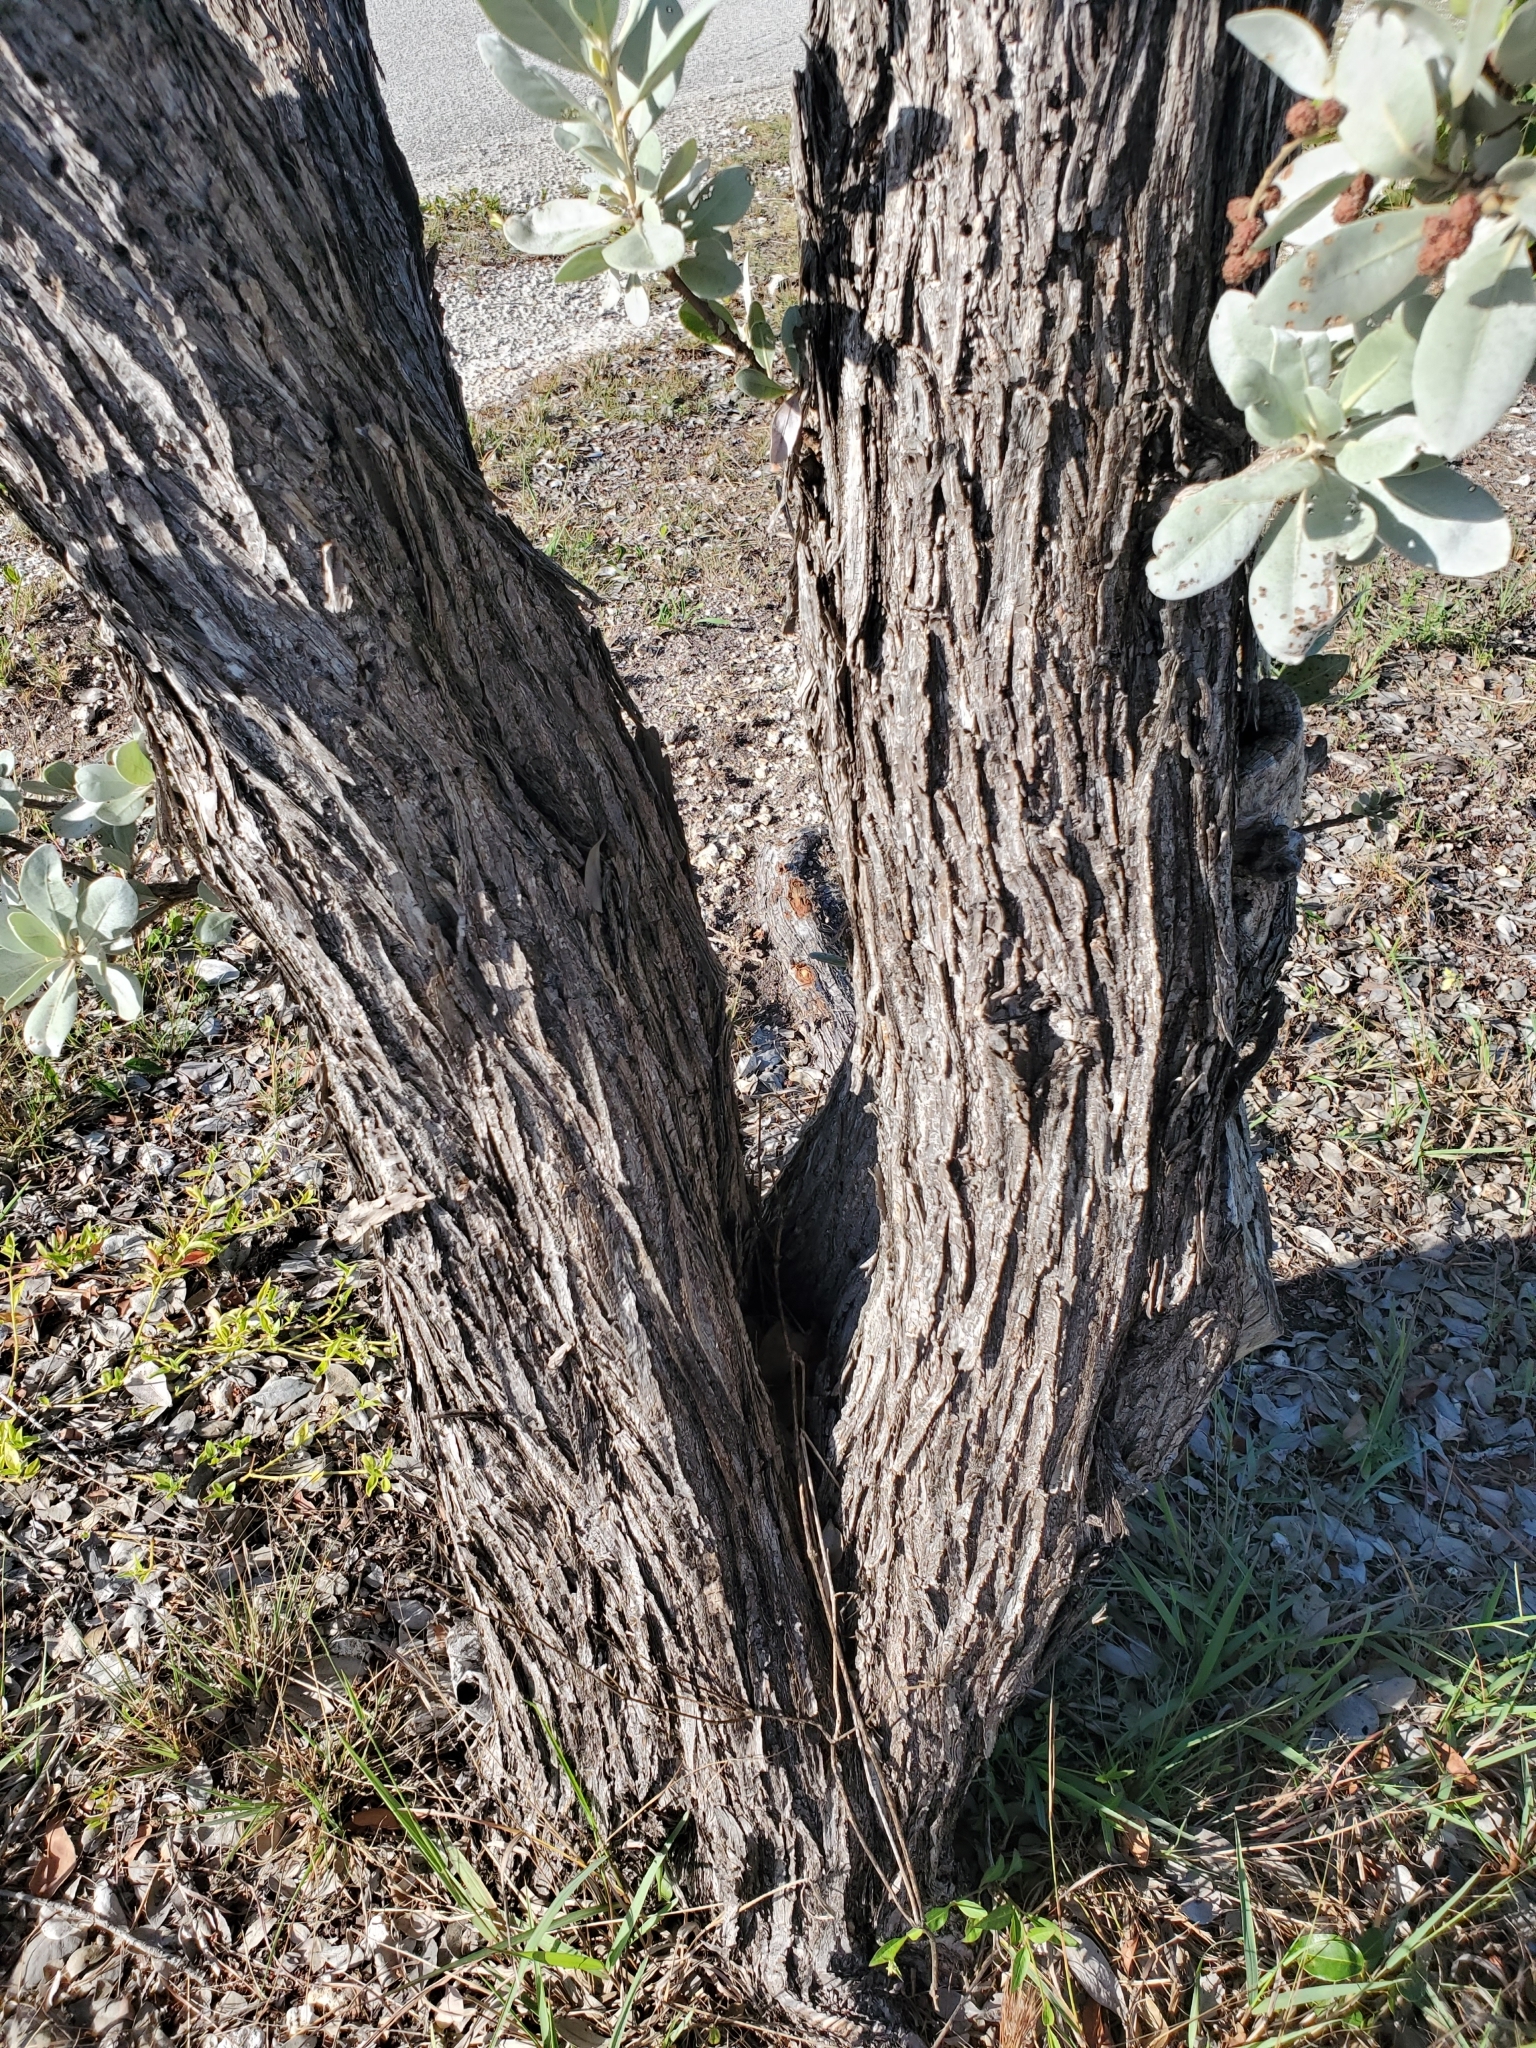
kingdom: Plantae
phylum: Tracheophyta
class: Magnoliopsida
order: Myrtales
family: Combretaceae
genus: Conocarpus
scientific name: Conocarpus erectus
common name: Button mangrove
